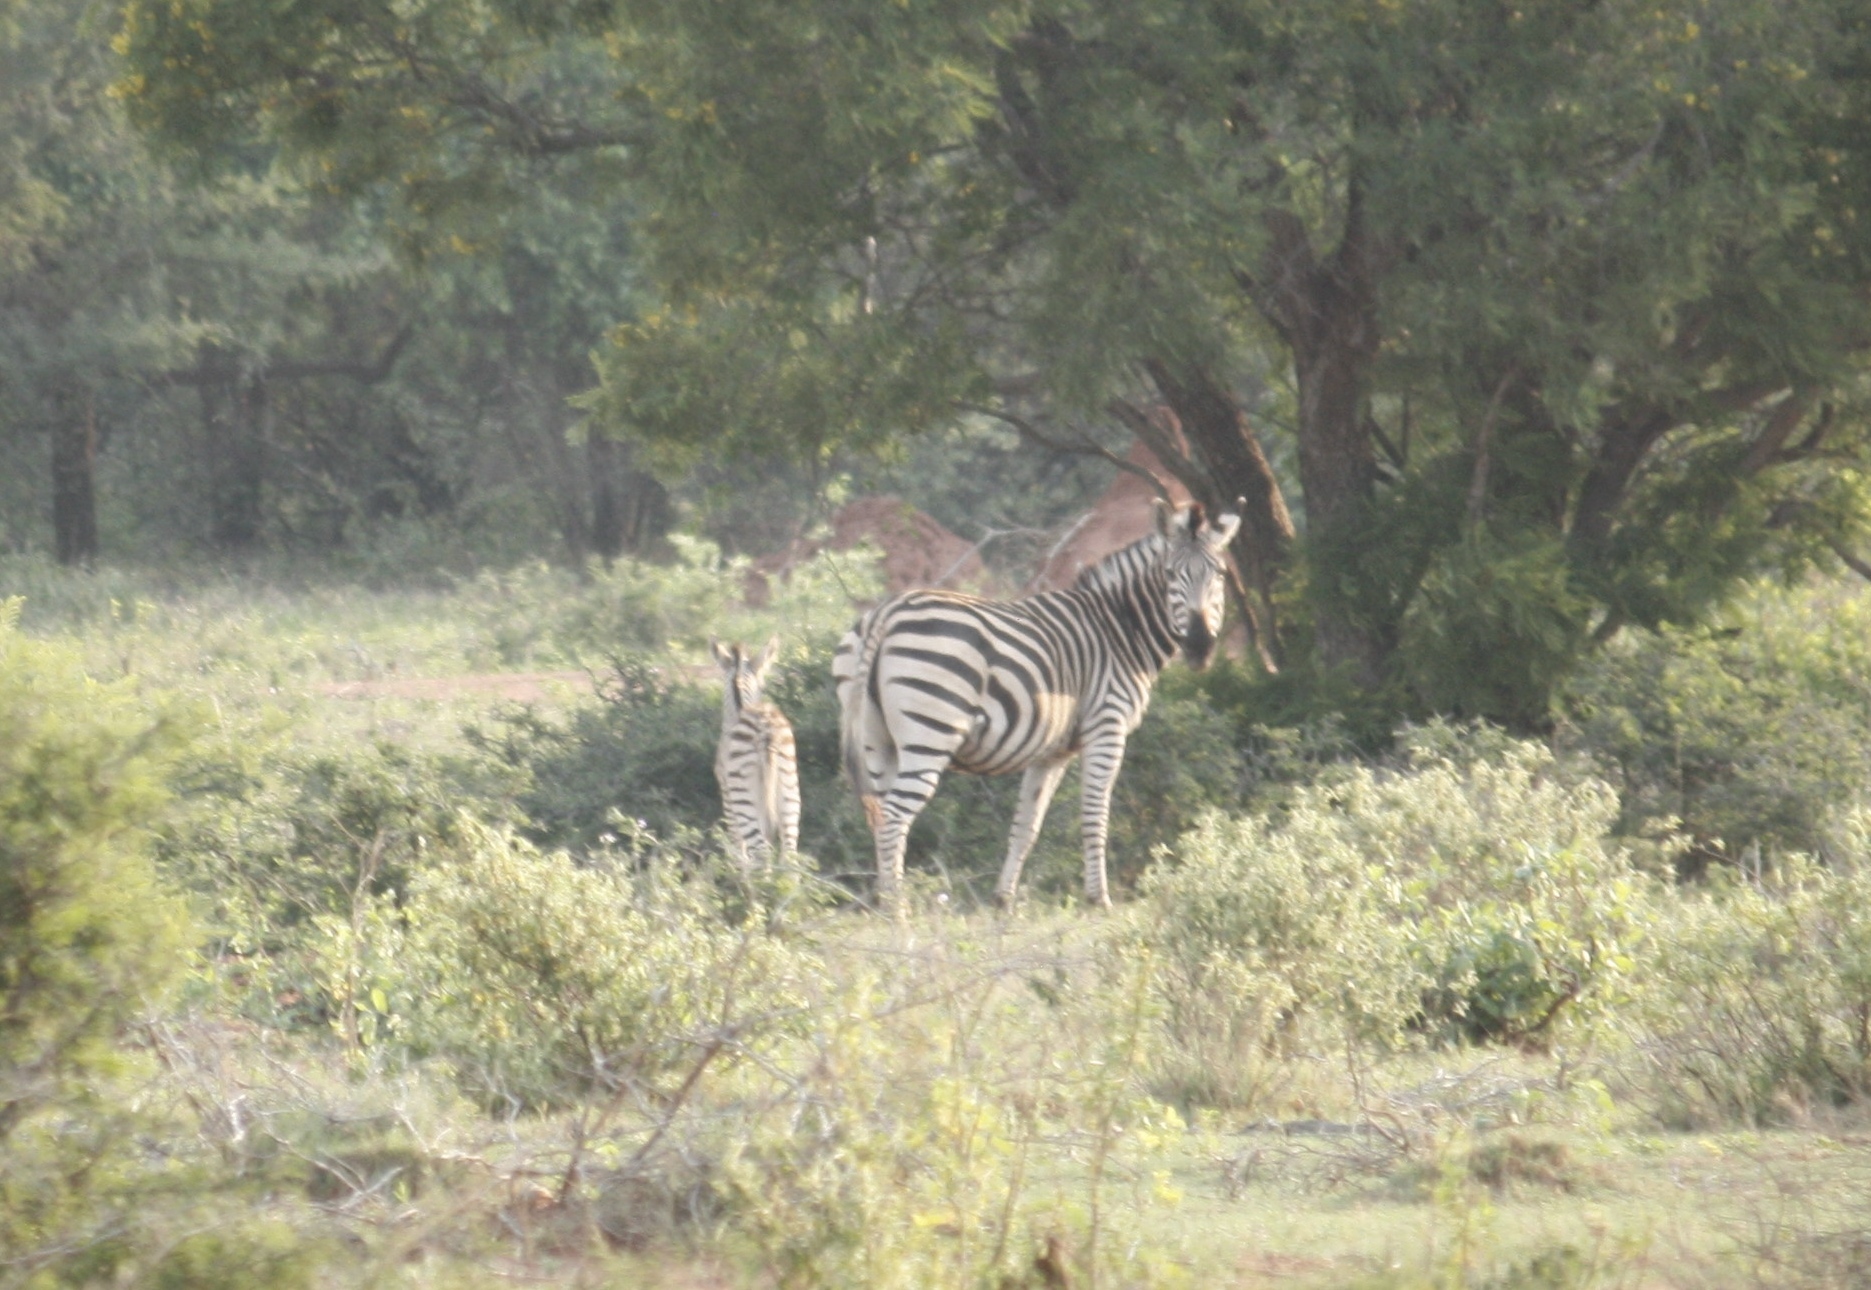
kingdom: Animalia
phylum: Chordata
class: Mammalia
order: Perissodactyla
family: Equidae
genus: Equus
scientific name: Equus quagga
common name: Plains zebra
